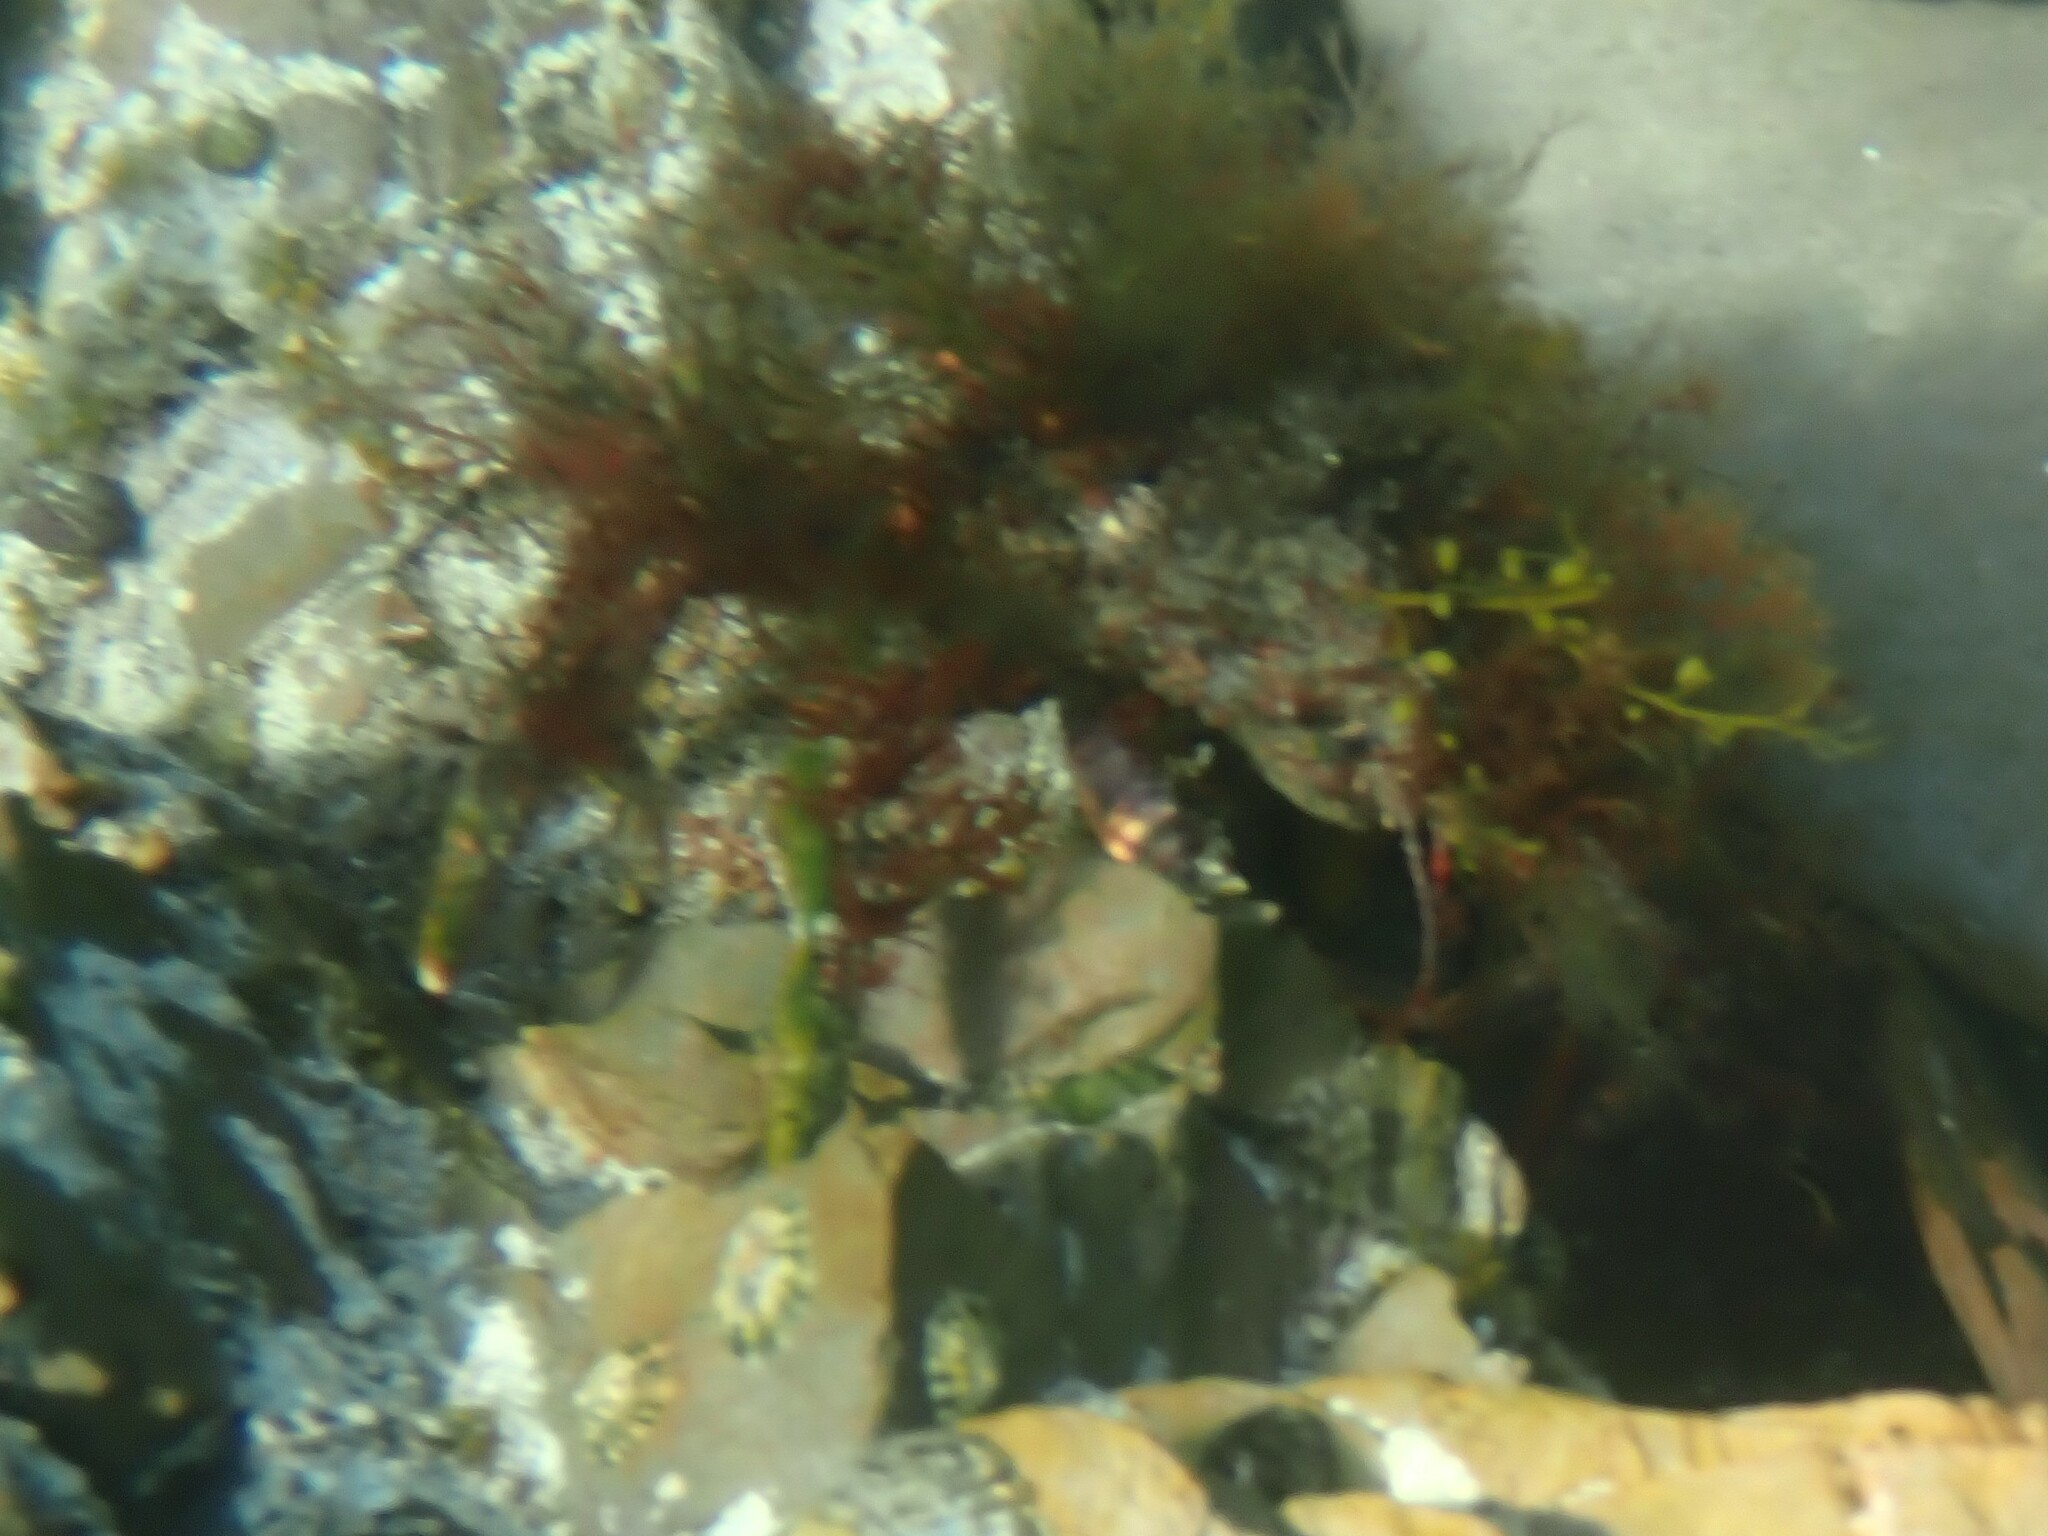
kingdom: Animalia
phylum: Arthropoda
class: Malacostraca
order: Decapoda
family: Majidae
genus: Maja
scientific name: Maja brachydactyla
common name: Common spider crab
